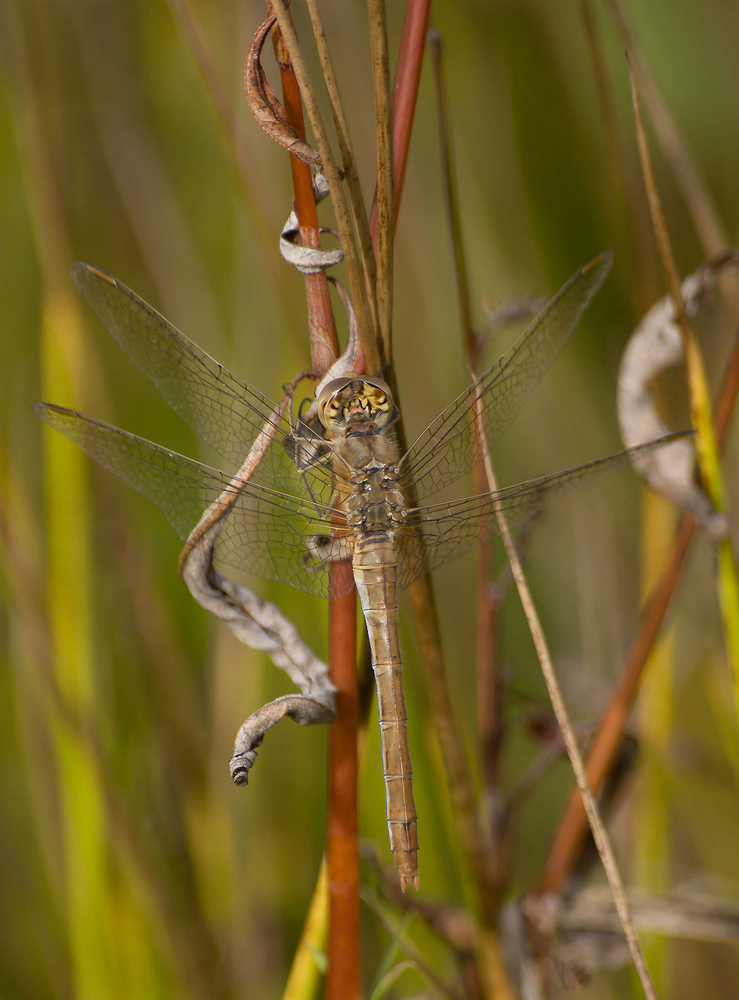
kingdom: Animalia
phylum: Arthropoda
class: Insecta
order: Odonata
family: Libellulidae
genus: Sympetrum
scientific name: Sympetrum meridionale
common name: Southern darter
